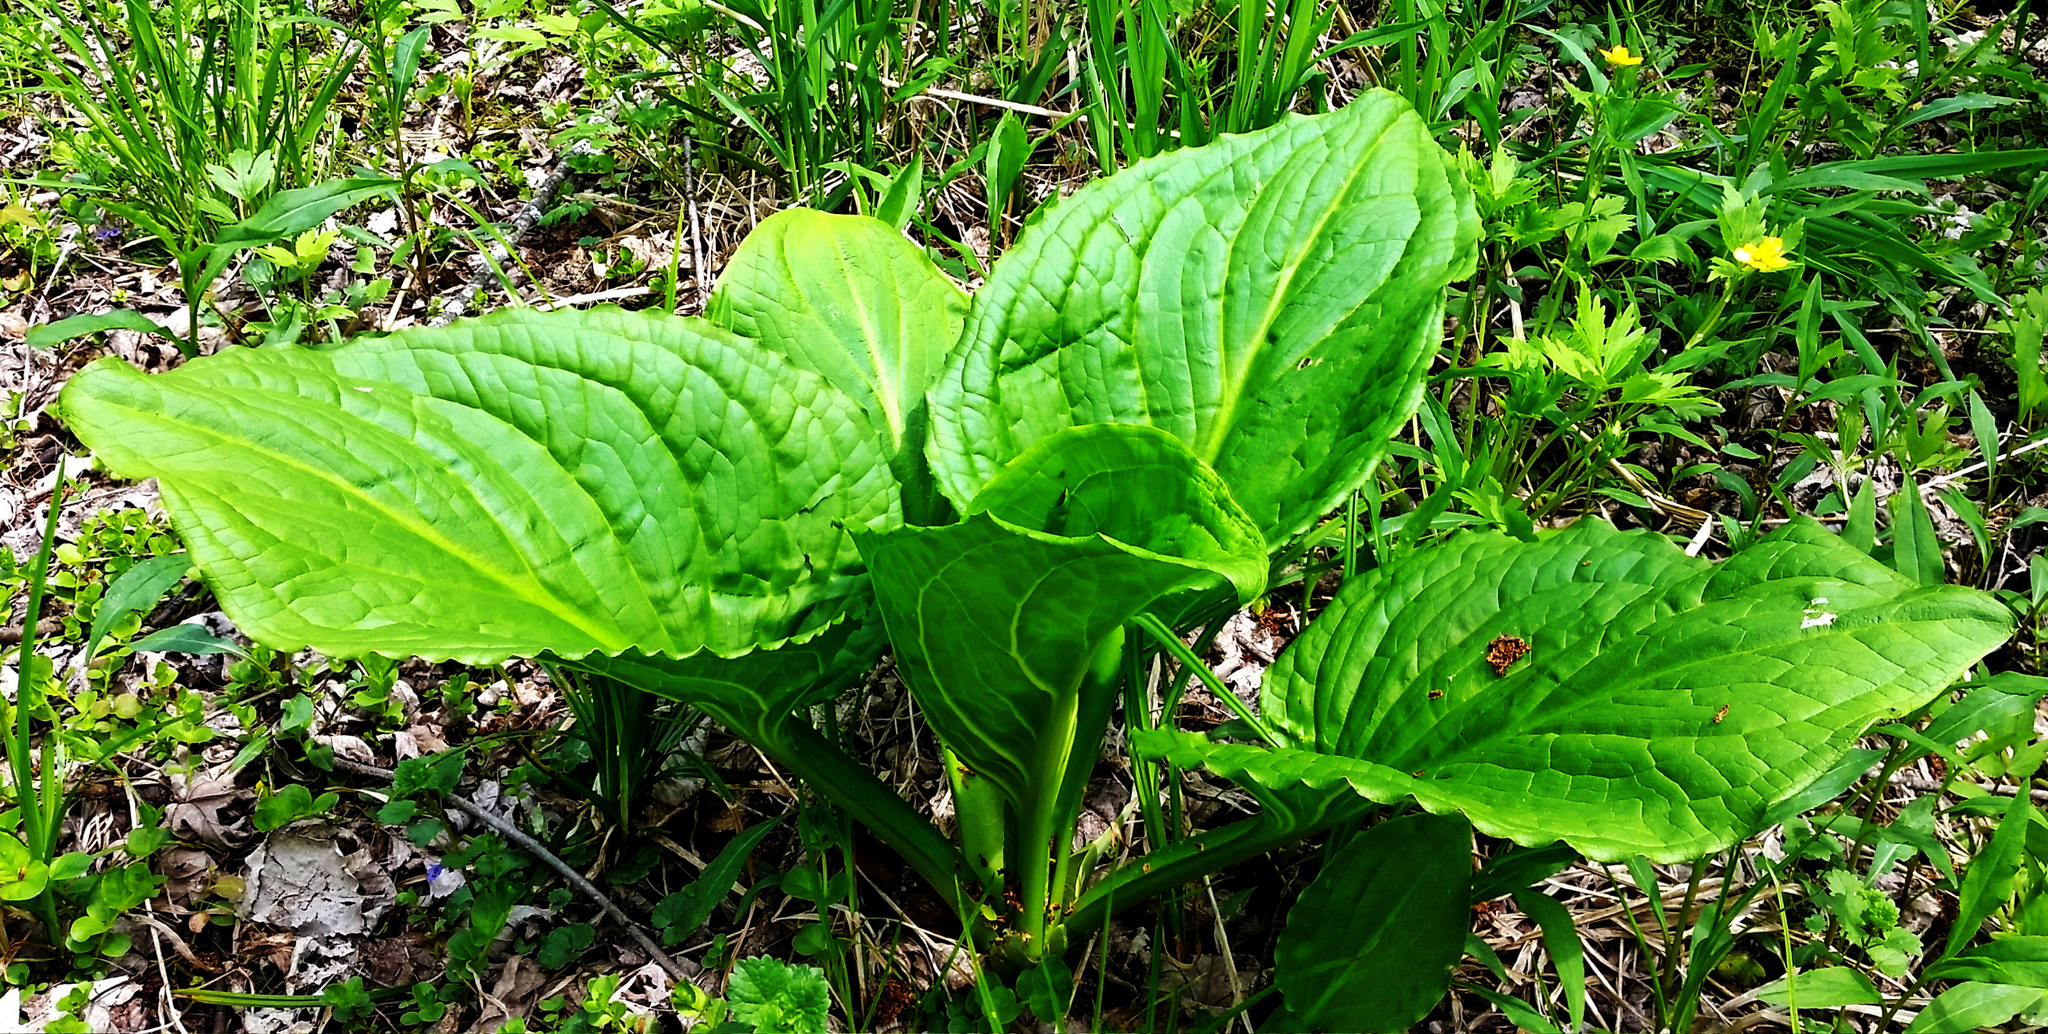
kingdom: Plantae
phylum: Tracheophyta
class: Liliopsida
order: Alismatales
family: Araceae
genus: Symplocarpus
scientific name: Symplocarpus foetidus
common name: Eastern skunk cabbage
